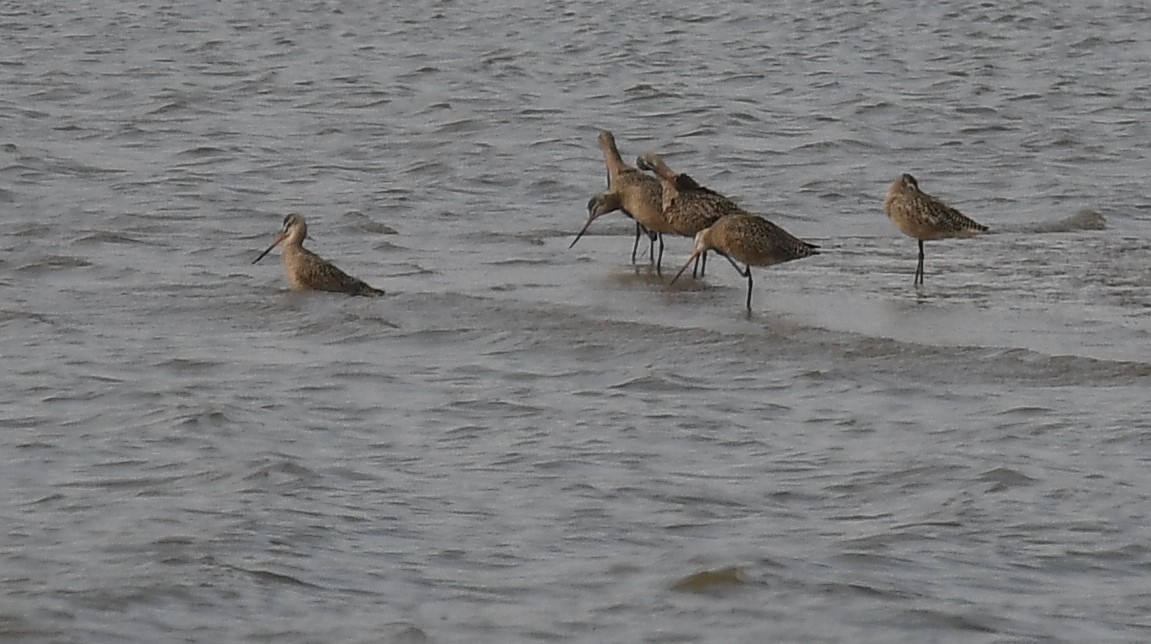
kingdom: Animalia
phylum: Chordata
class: Aves
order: Charadriiformes
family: Scolopacidae
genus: Limosa
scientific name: Limosa fedoa
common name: Marbled godwit
